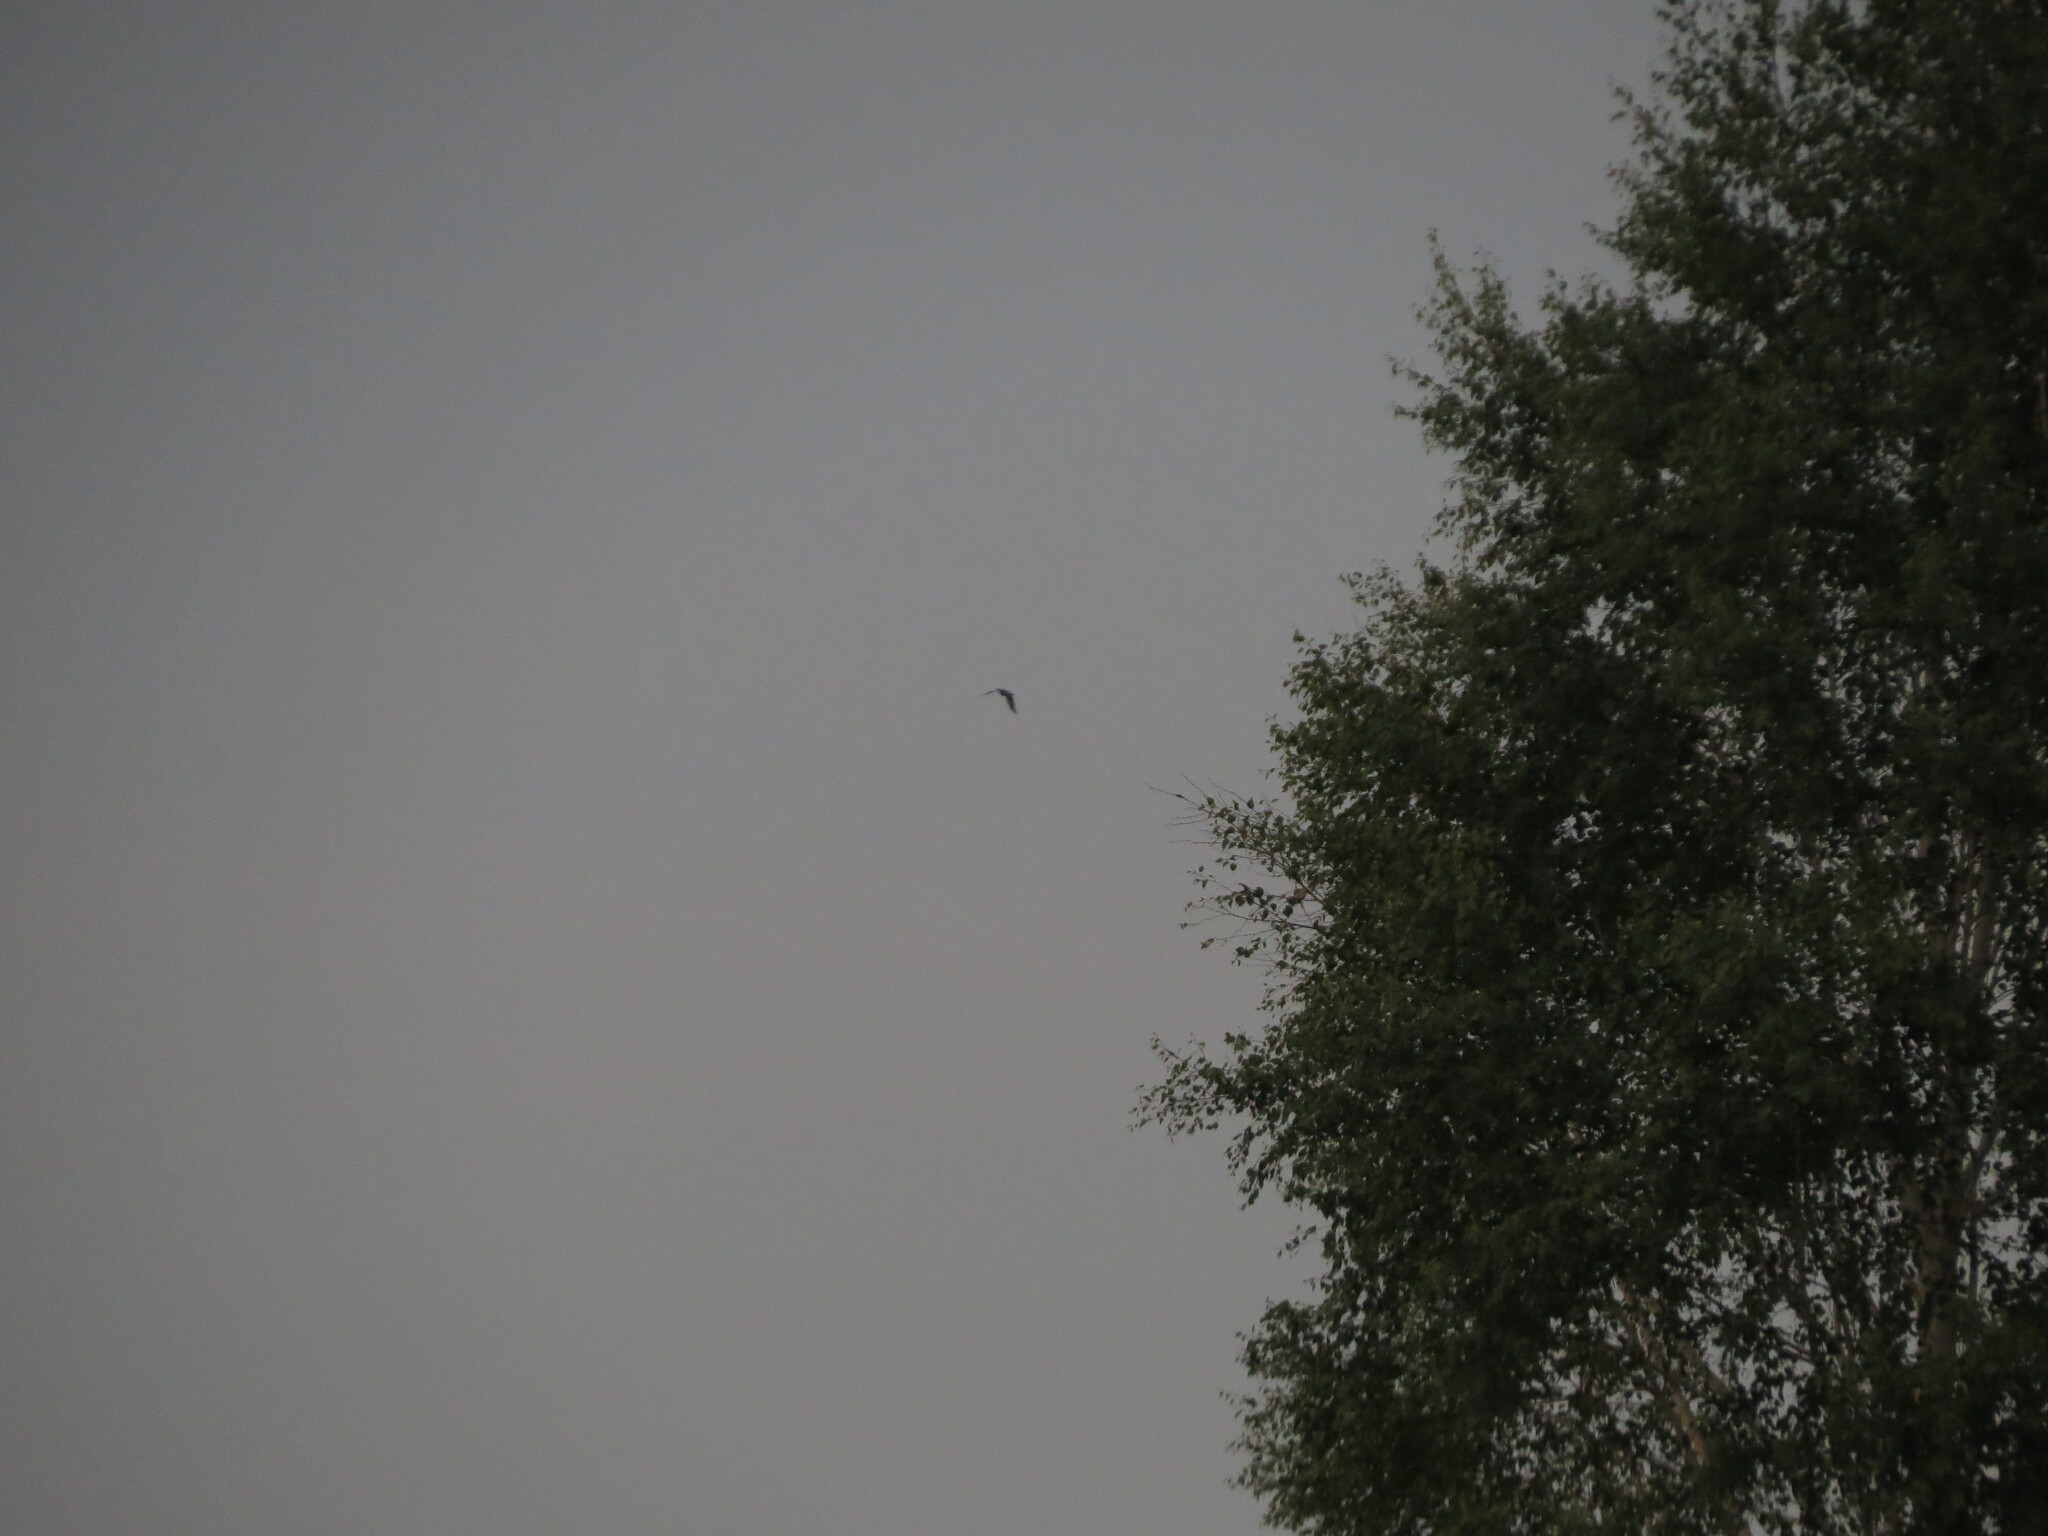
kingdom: Animalia
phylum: Chordata
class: Aves
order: Columbiformes
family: Columbidae
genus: Columba
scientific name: Columba palumbus
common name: Common wood pigeon
